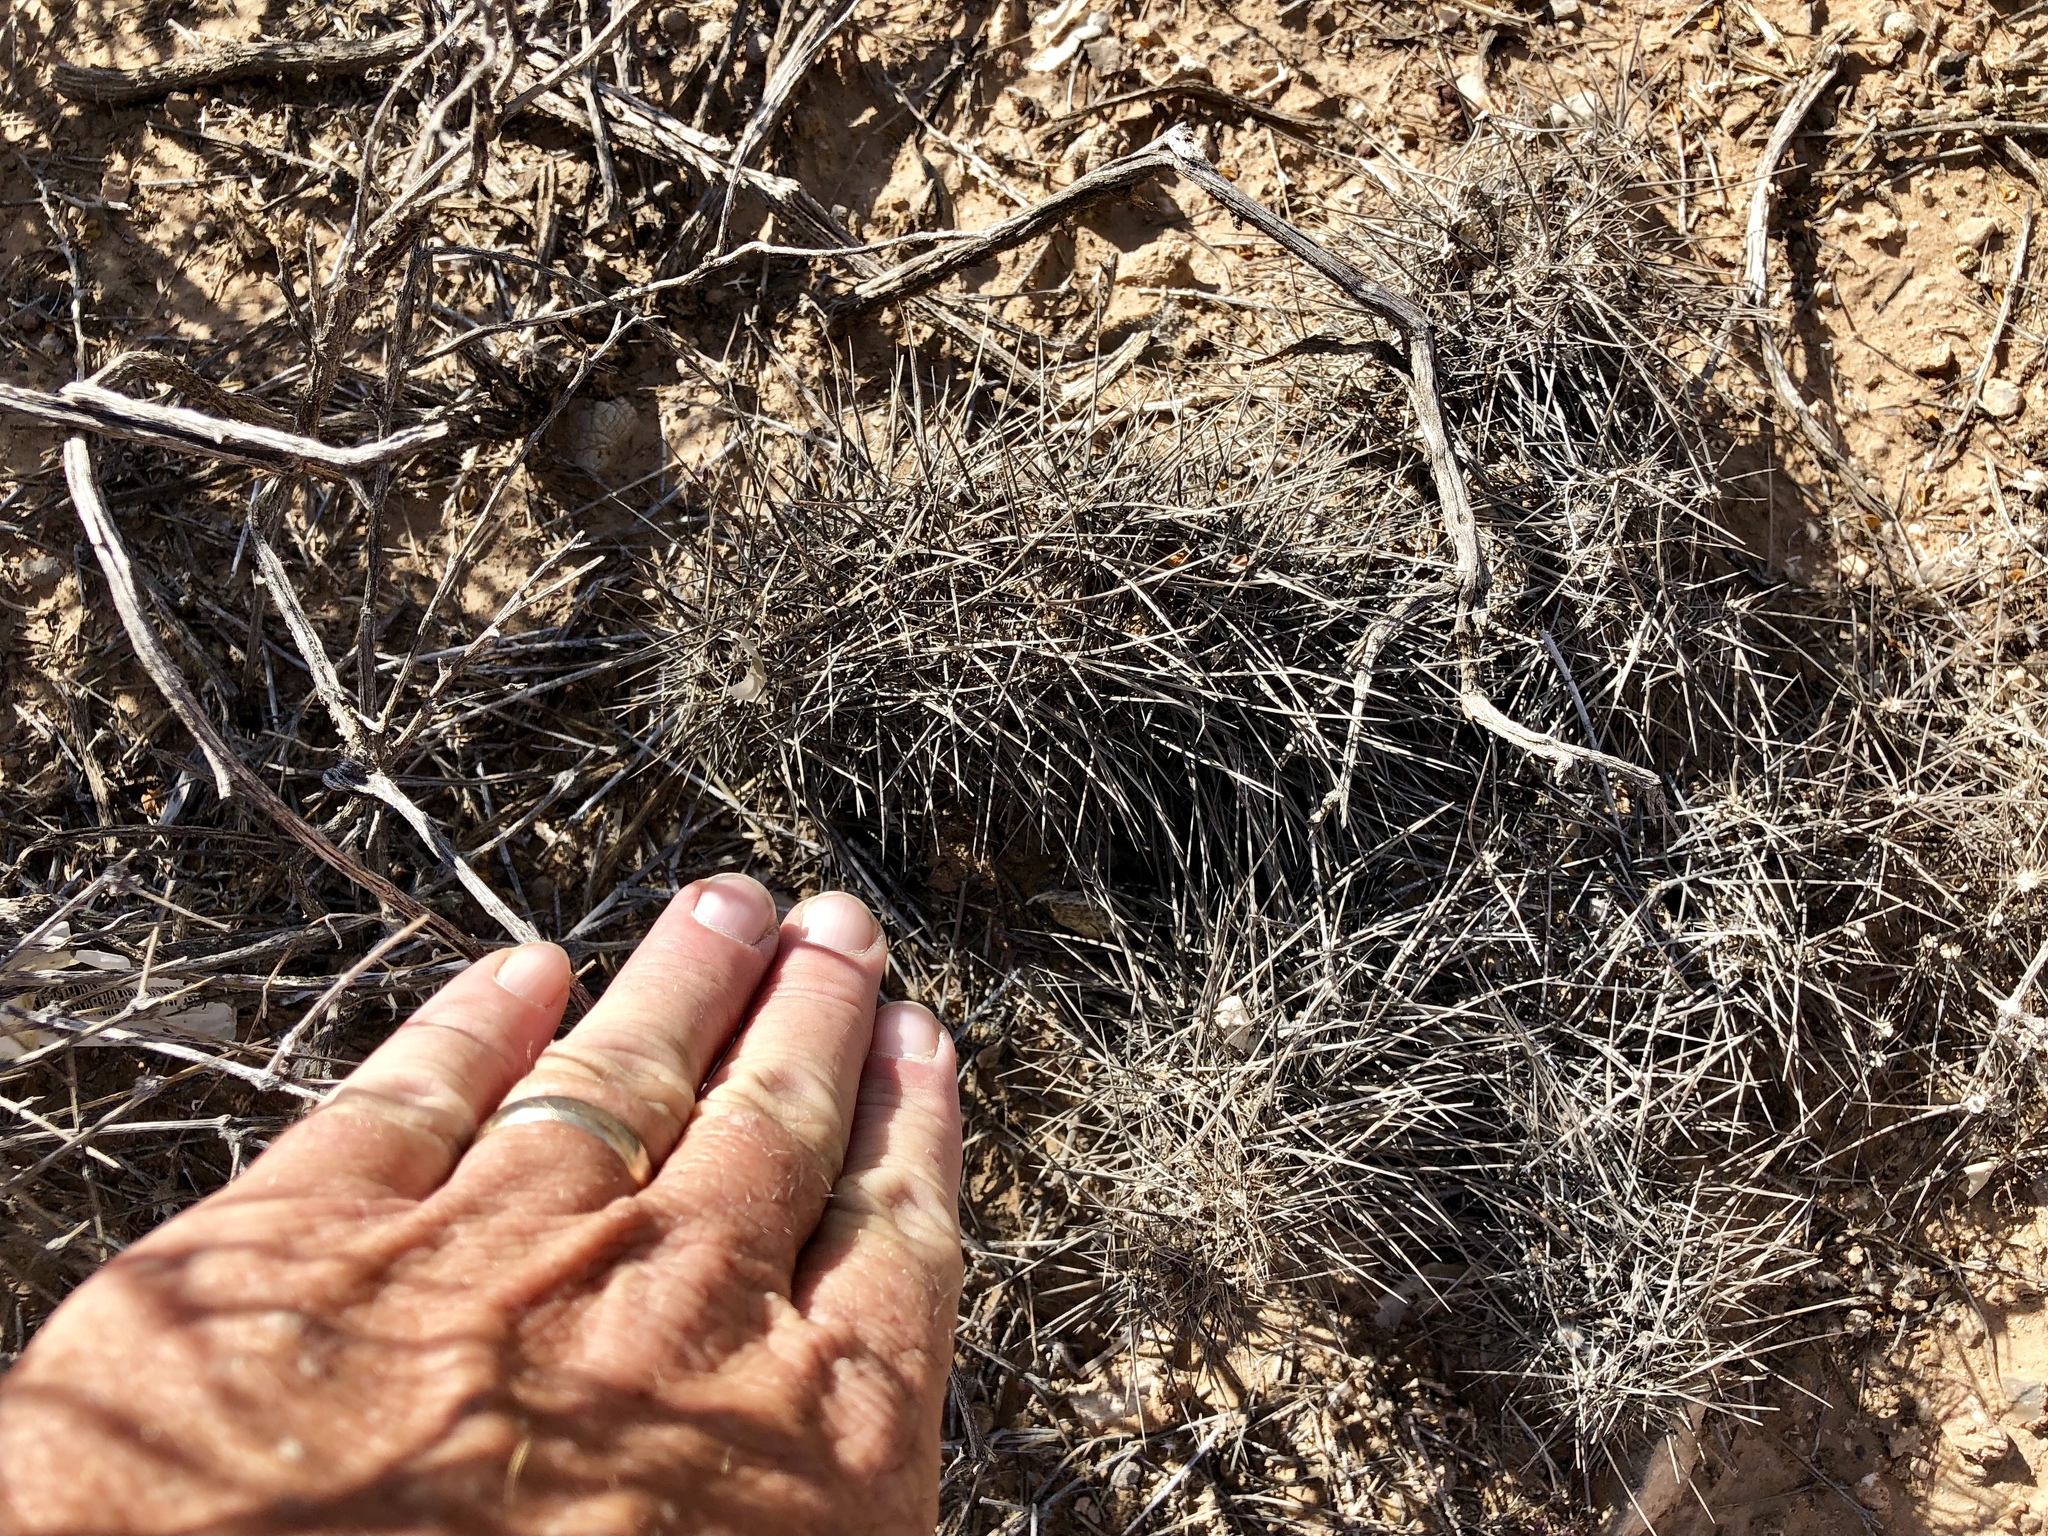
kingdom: Plantae
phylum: Tracheophyta
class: Magnoliopsida
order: Caryophyllales
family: Cactaceae
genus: Echinocereus
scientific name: Echinocereus engelmannii
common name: Engelmann's hedgehog cactus
